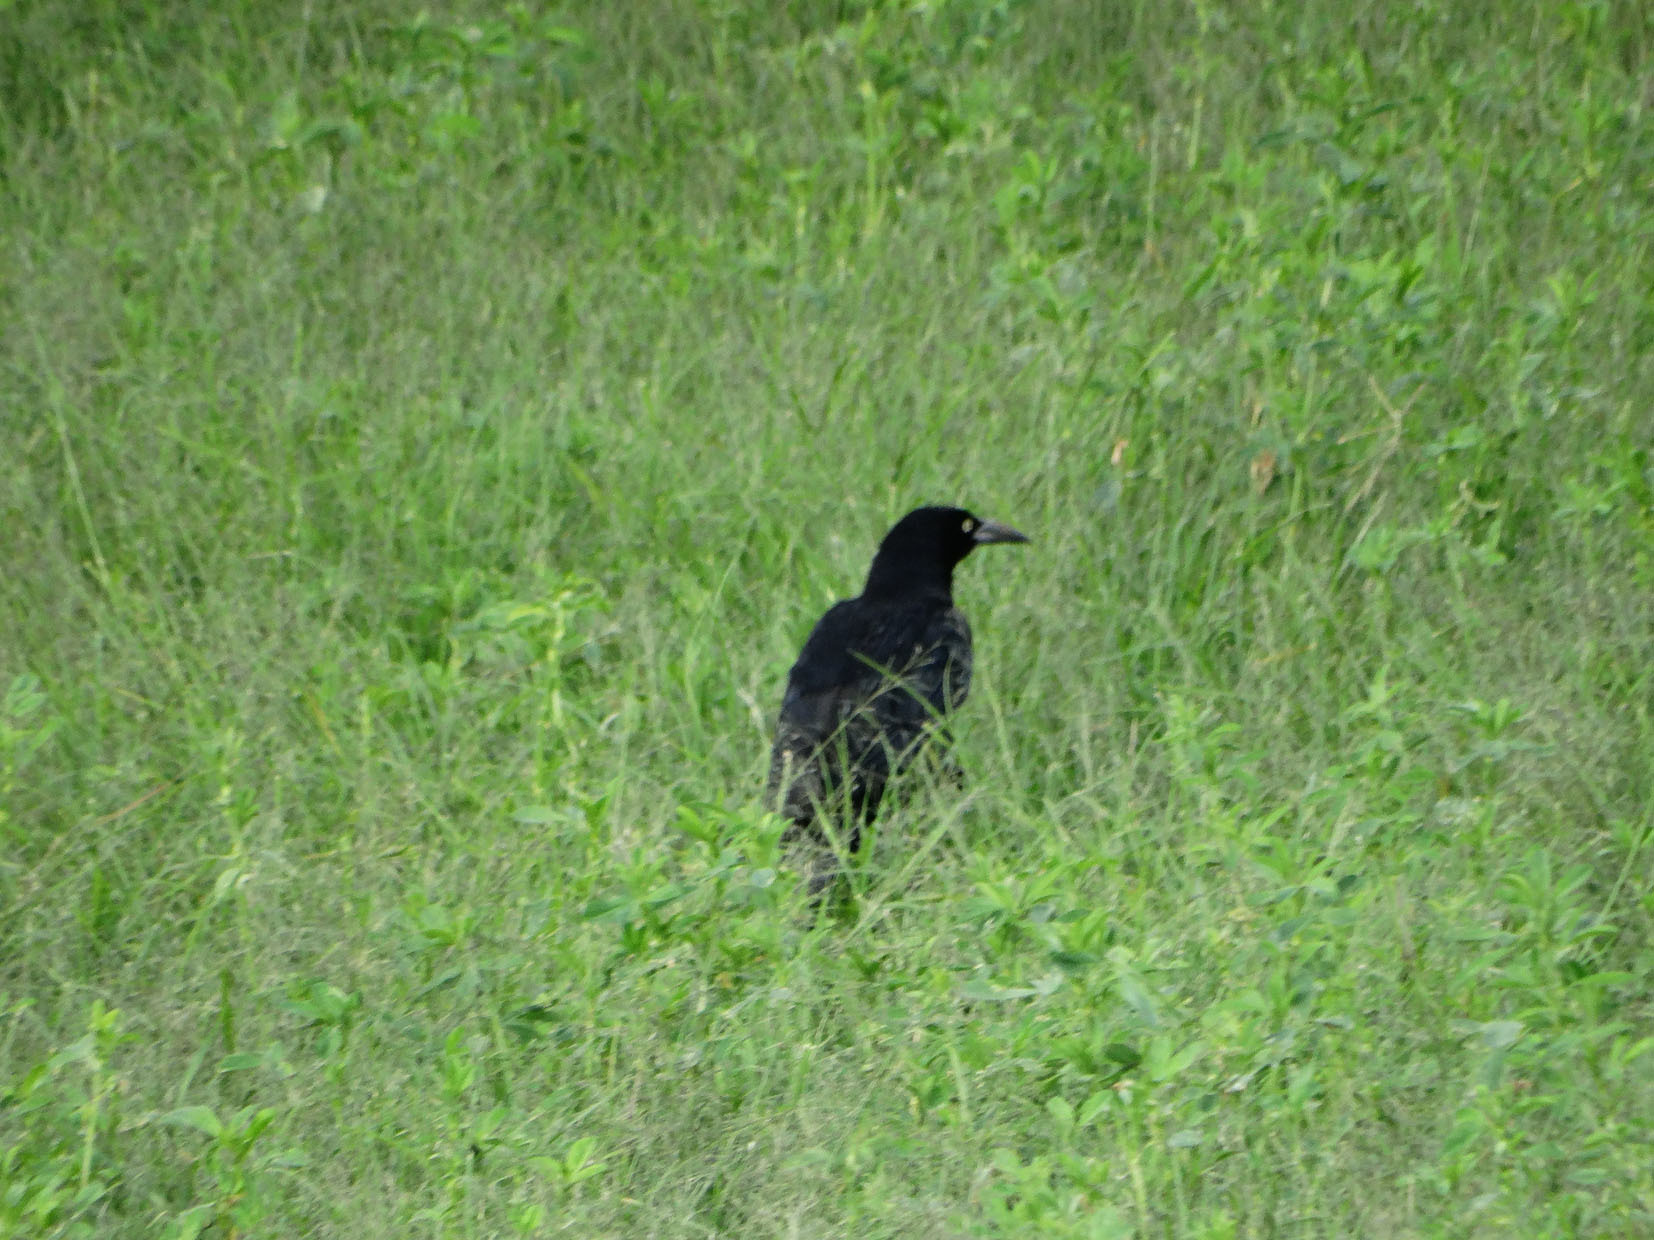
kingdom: Animalia
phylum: Chordata
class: Aves
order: Passeriformes
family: Icteridae
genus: Quiscalus
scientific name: Quiscalus mexicanus
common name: Great-tailed grackle
